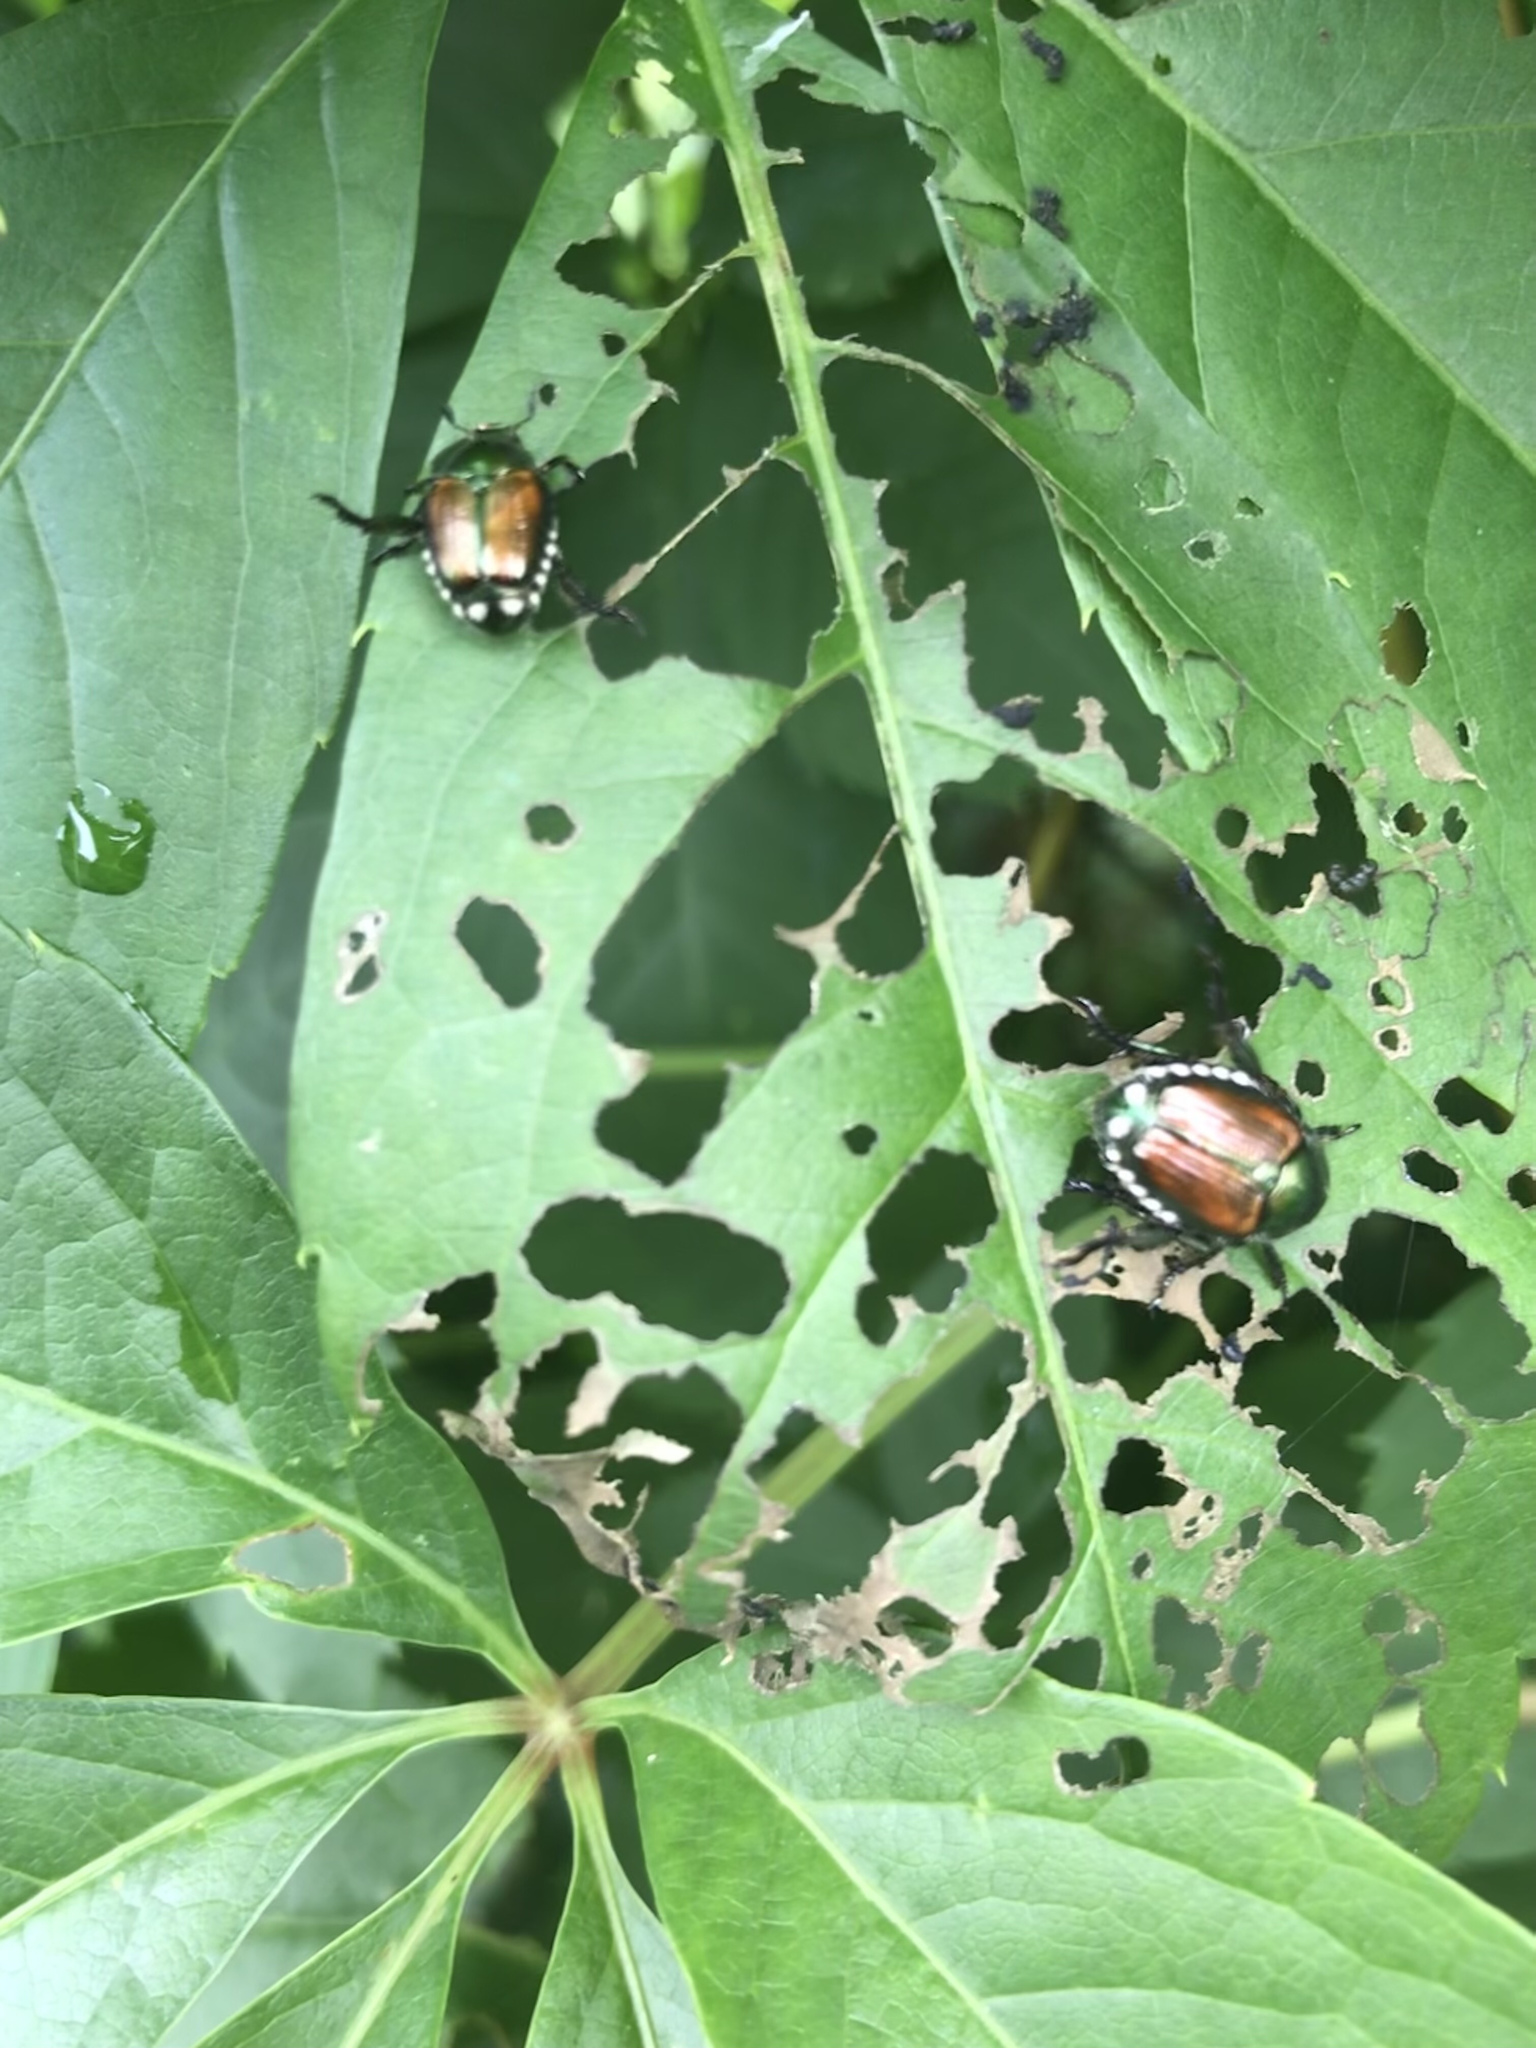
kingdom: Animalia
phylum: Arthropoda
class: Insecta
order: Coleoptera
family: Scarabaeidae
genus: Popillia
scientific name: Popillia japonica
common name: Japanese beetle
